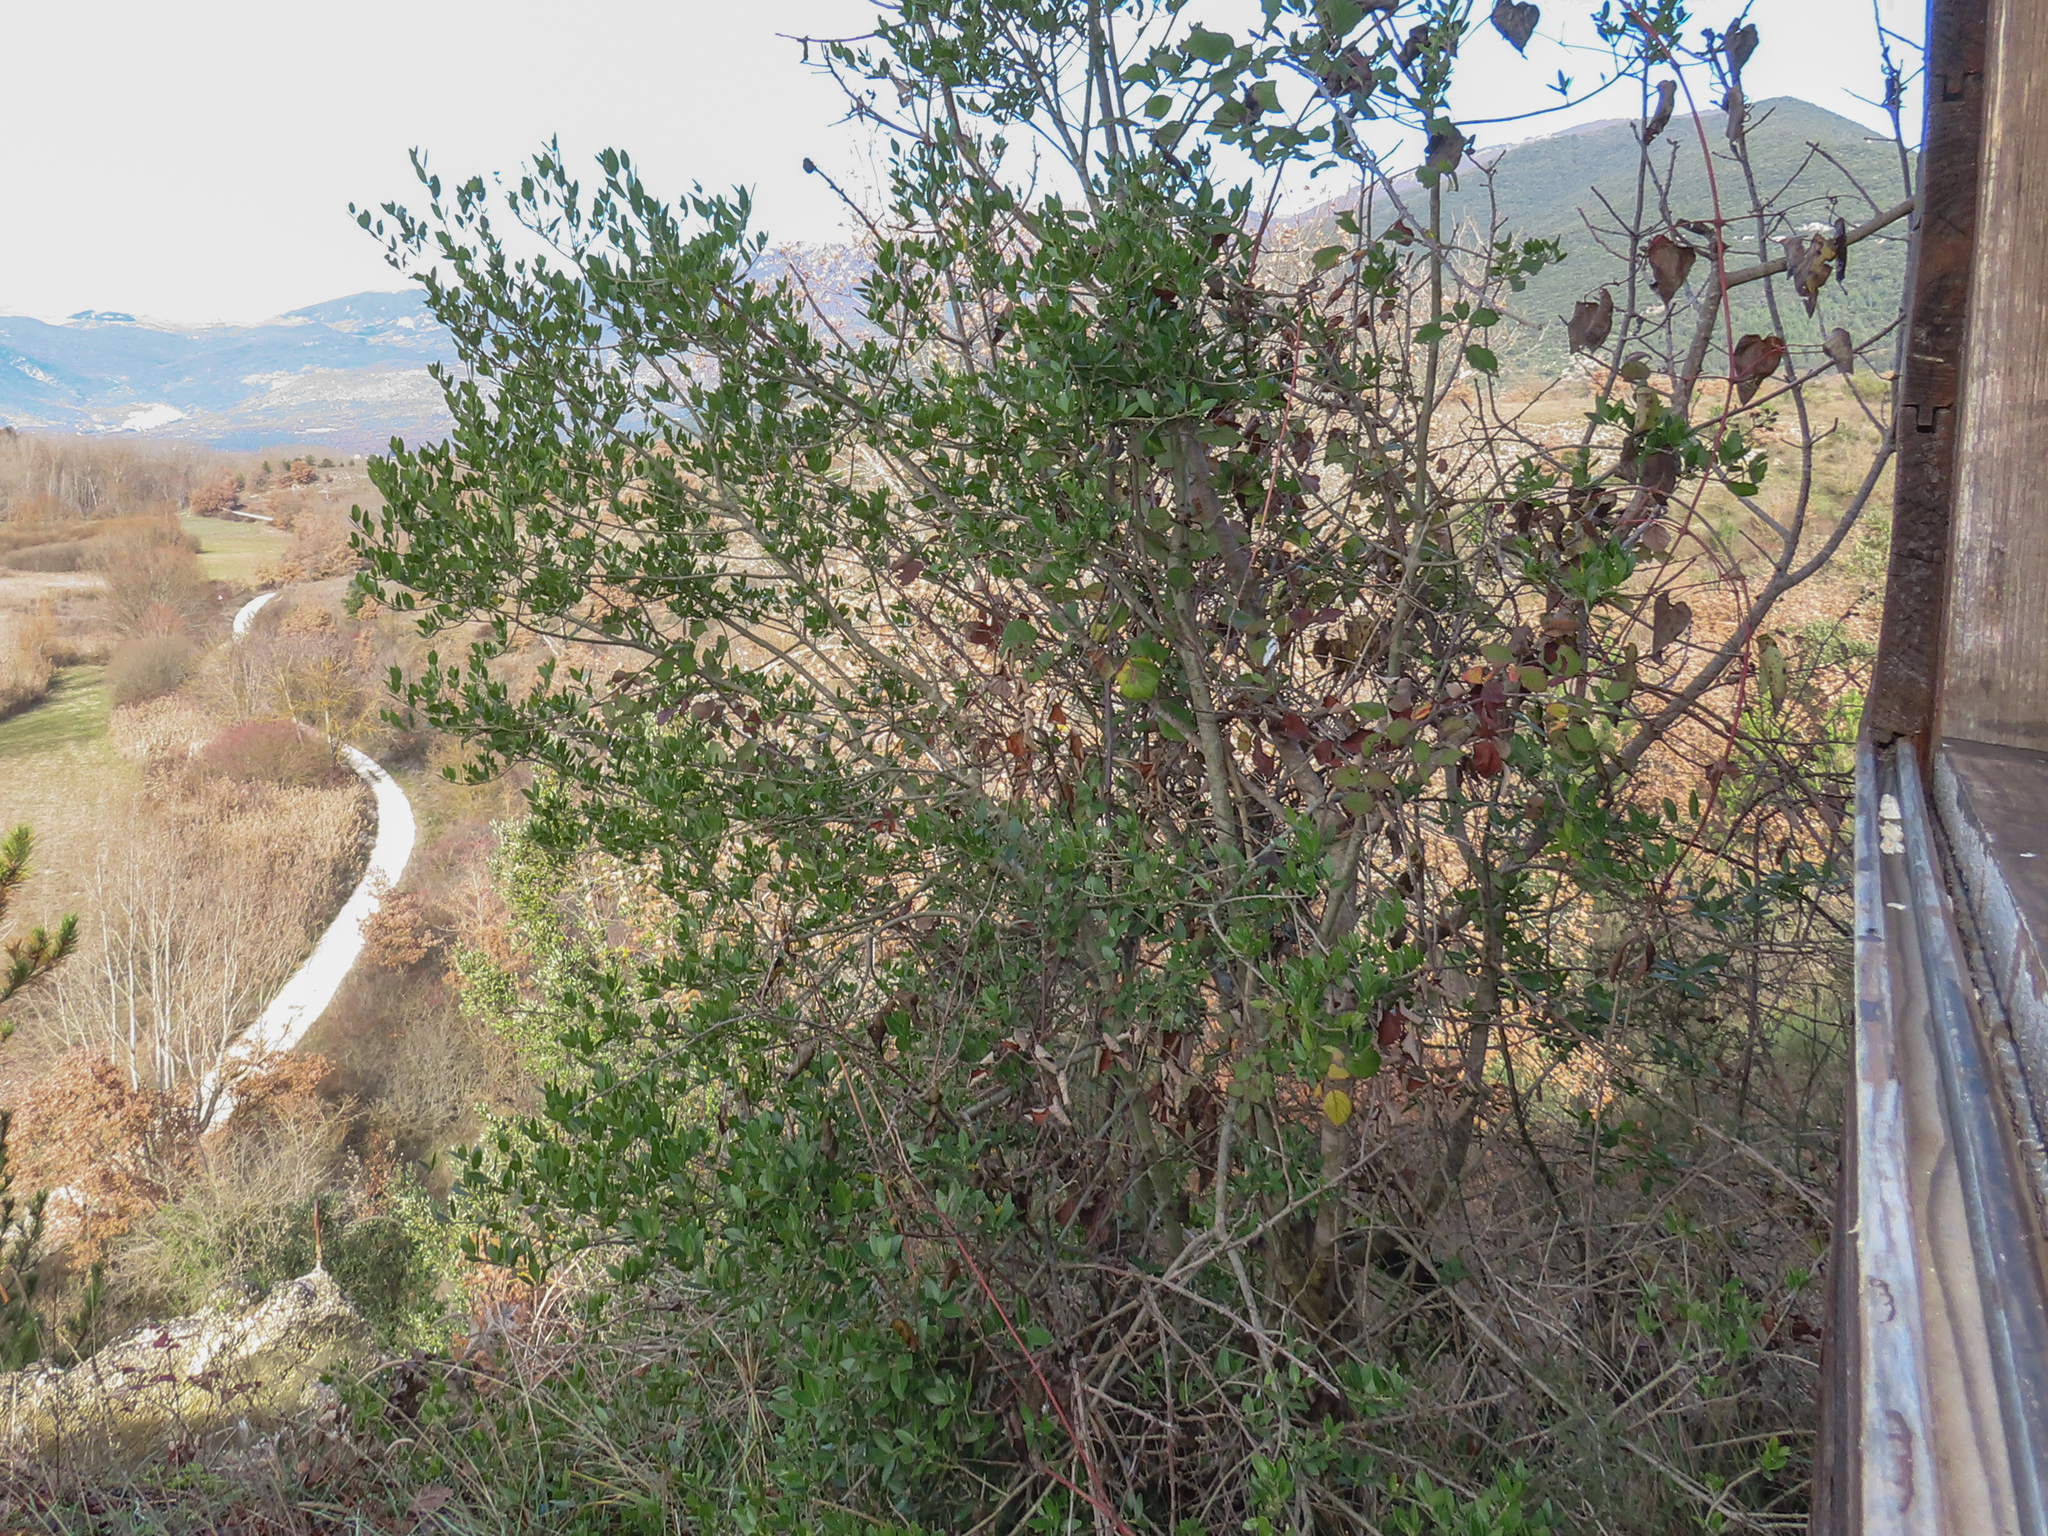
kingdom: Plantae
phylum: Tracheophyta
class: Magnoliopsida
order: Lamiales
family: Oleaceae
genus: Phillyrea
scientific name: Phillyrea latifolia
